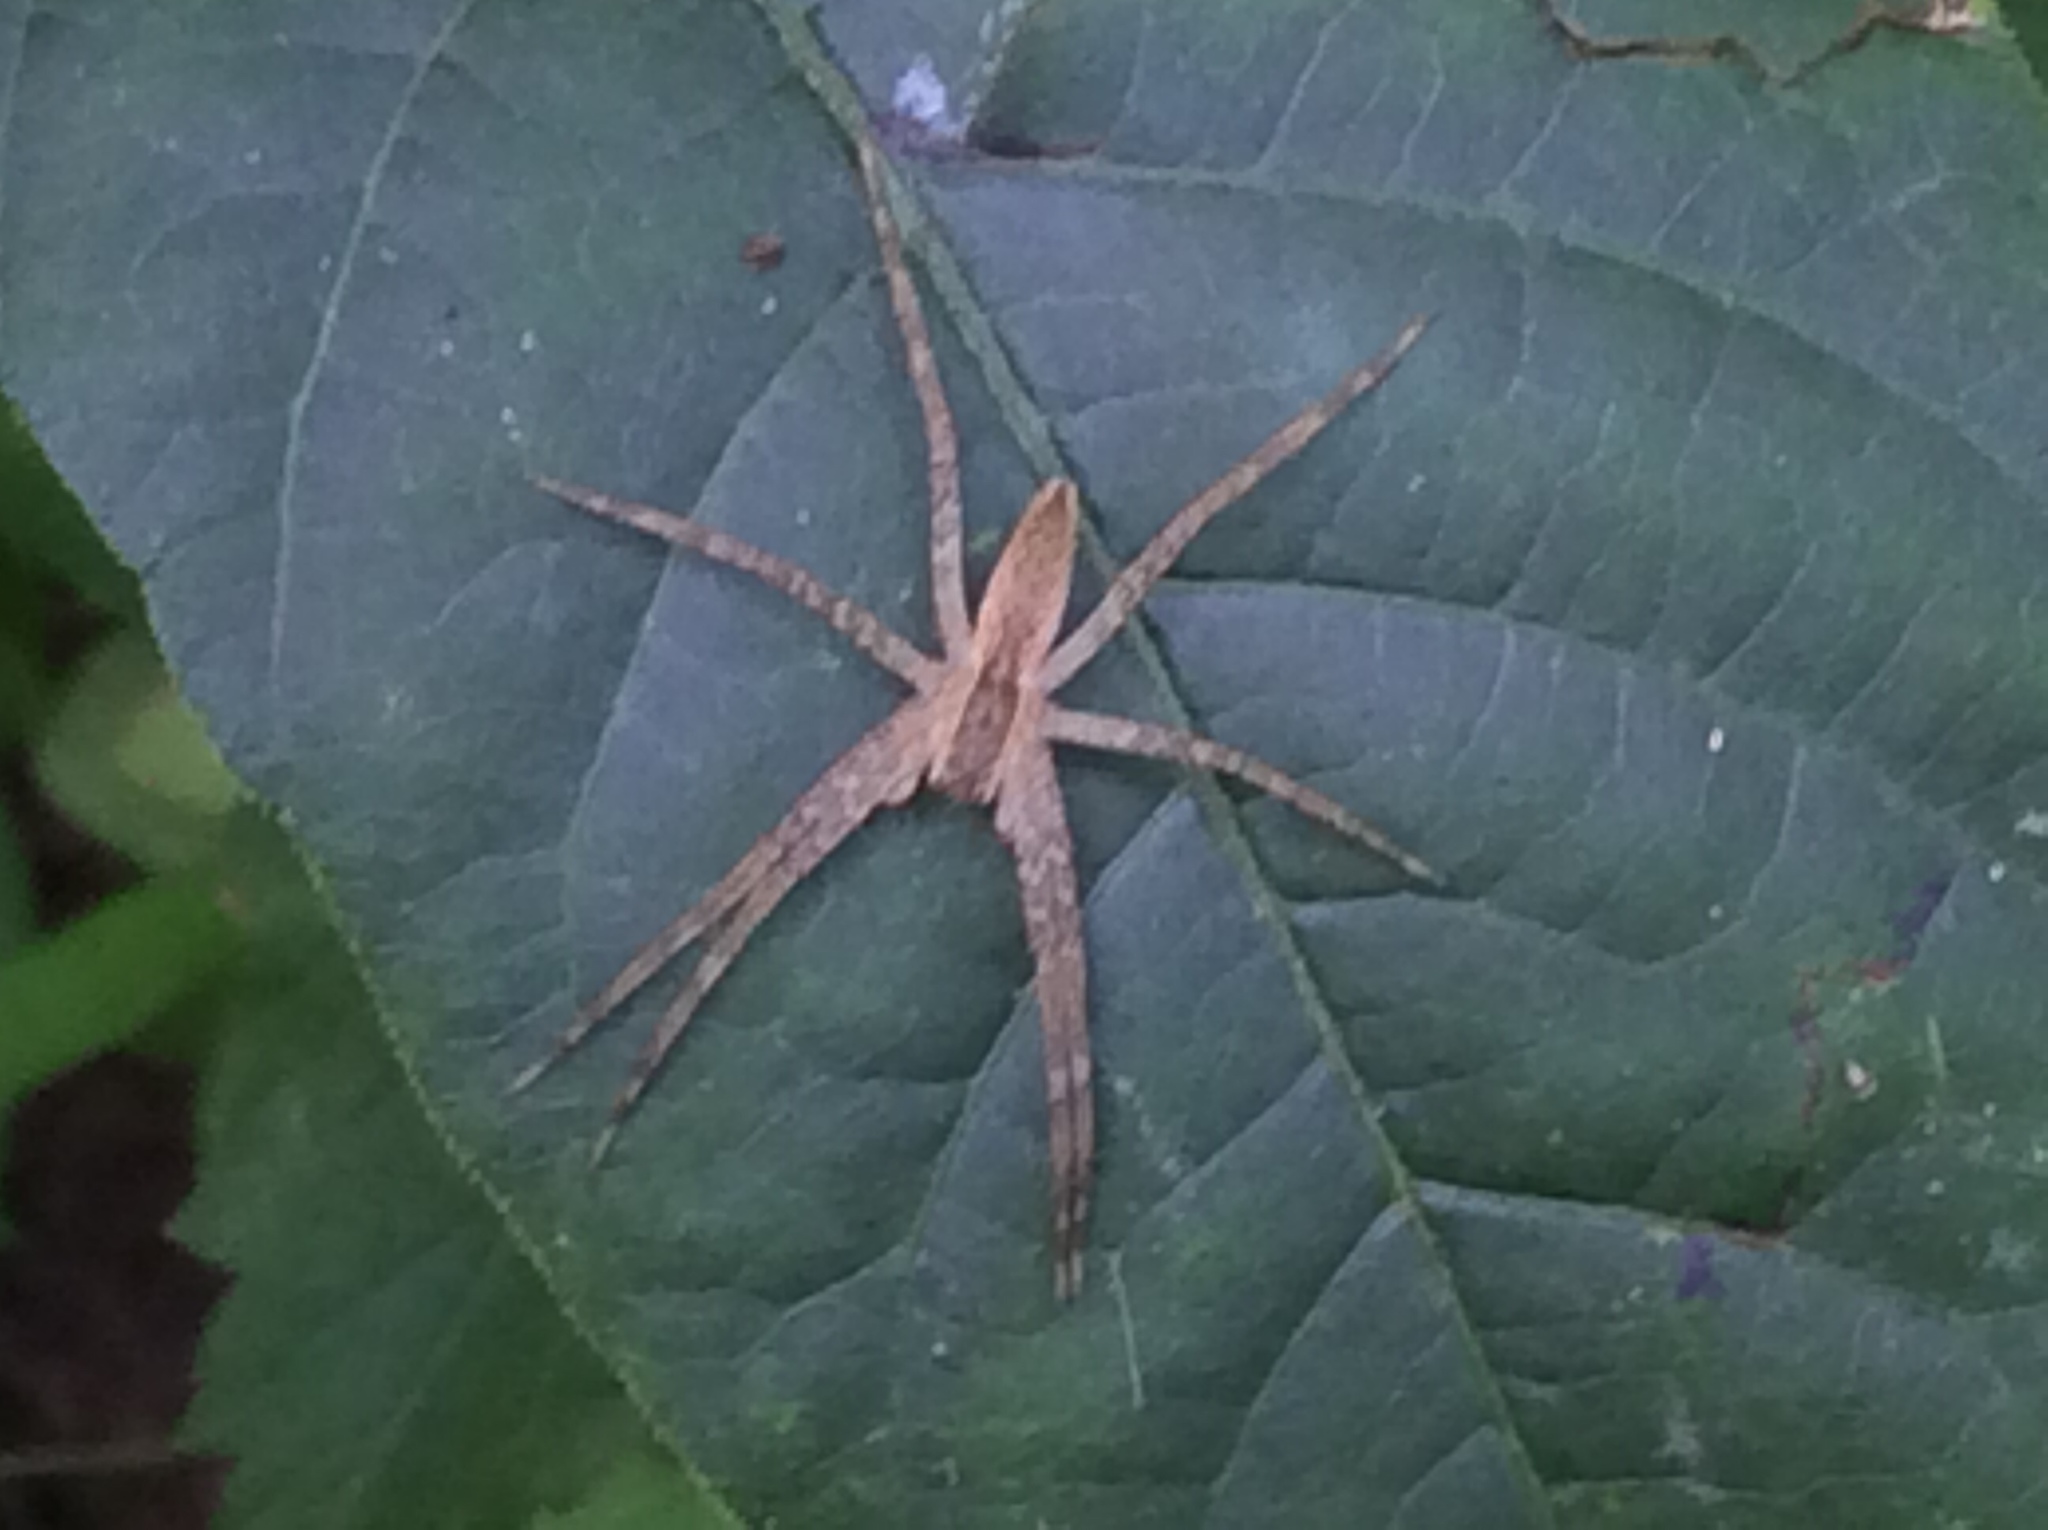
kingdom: Animalia
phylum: Arthropoda
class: Arachnida
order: Araneae
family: Pisauridae
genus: Pisaurina
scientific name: Pisaurina mira
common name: American nursery web spider
